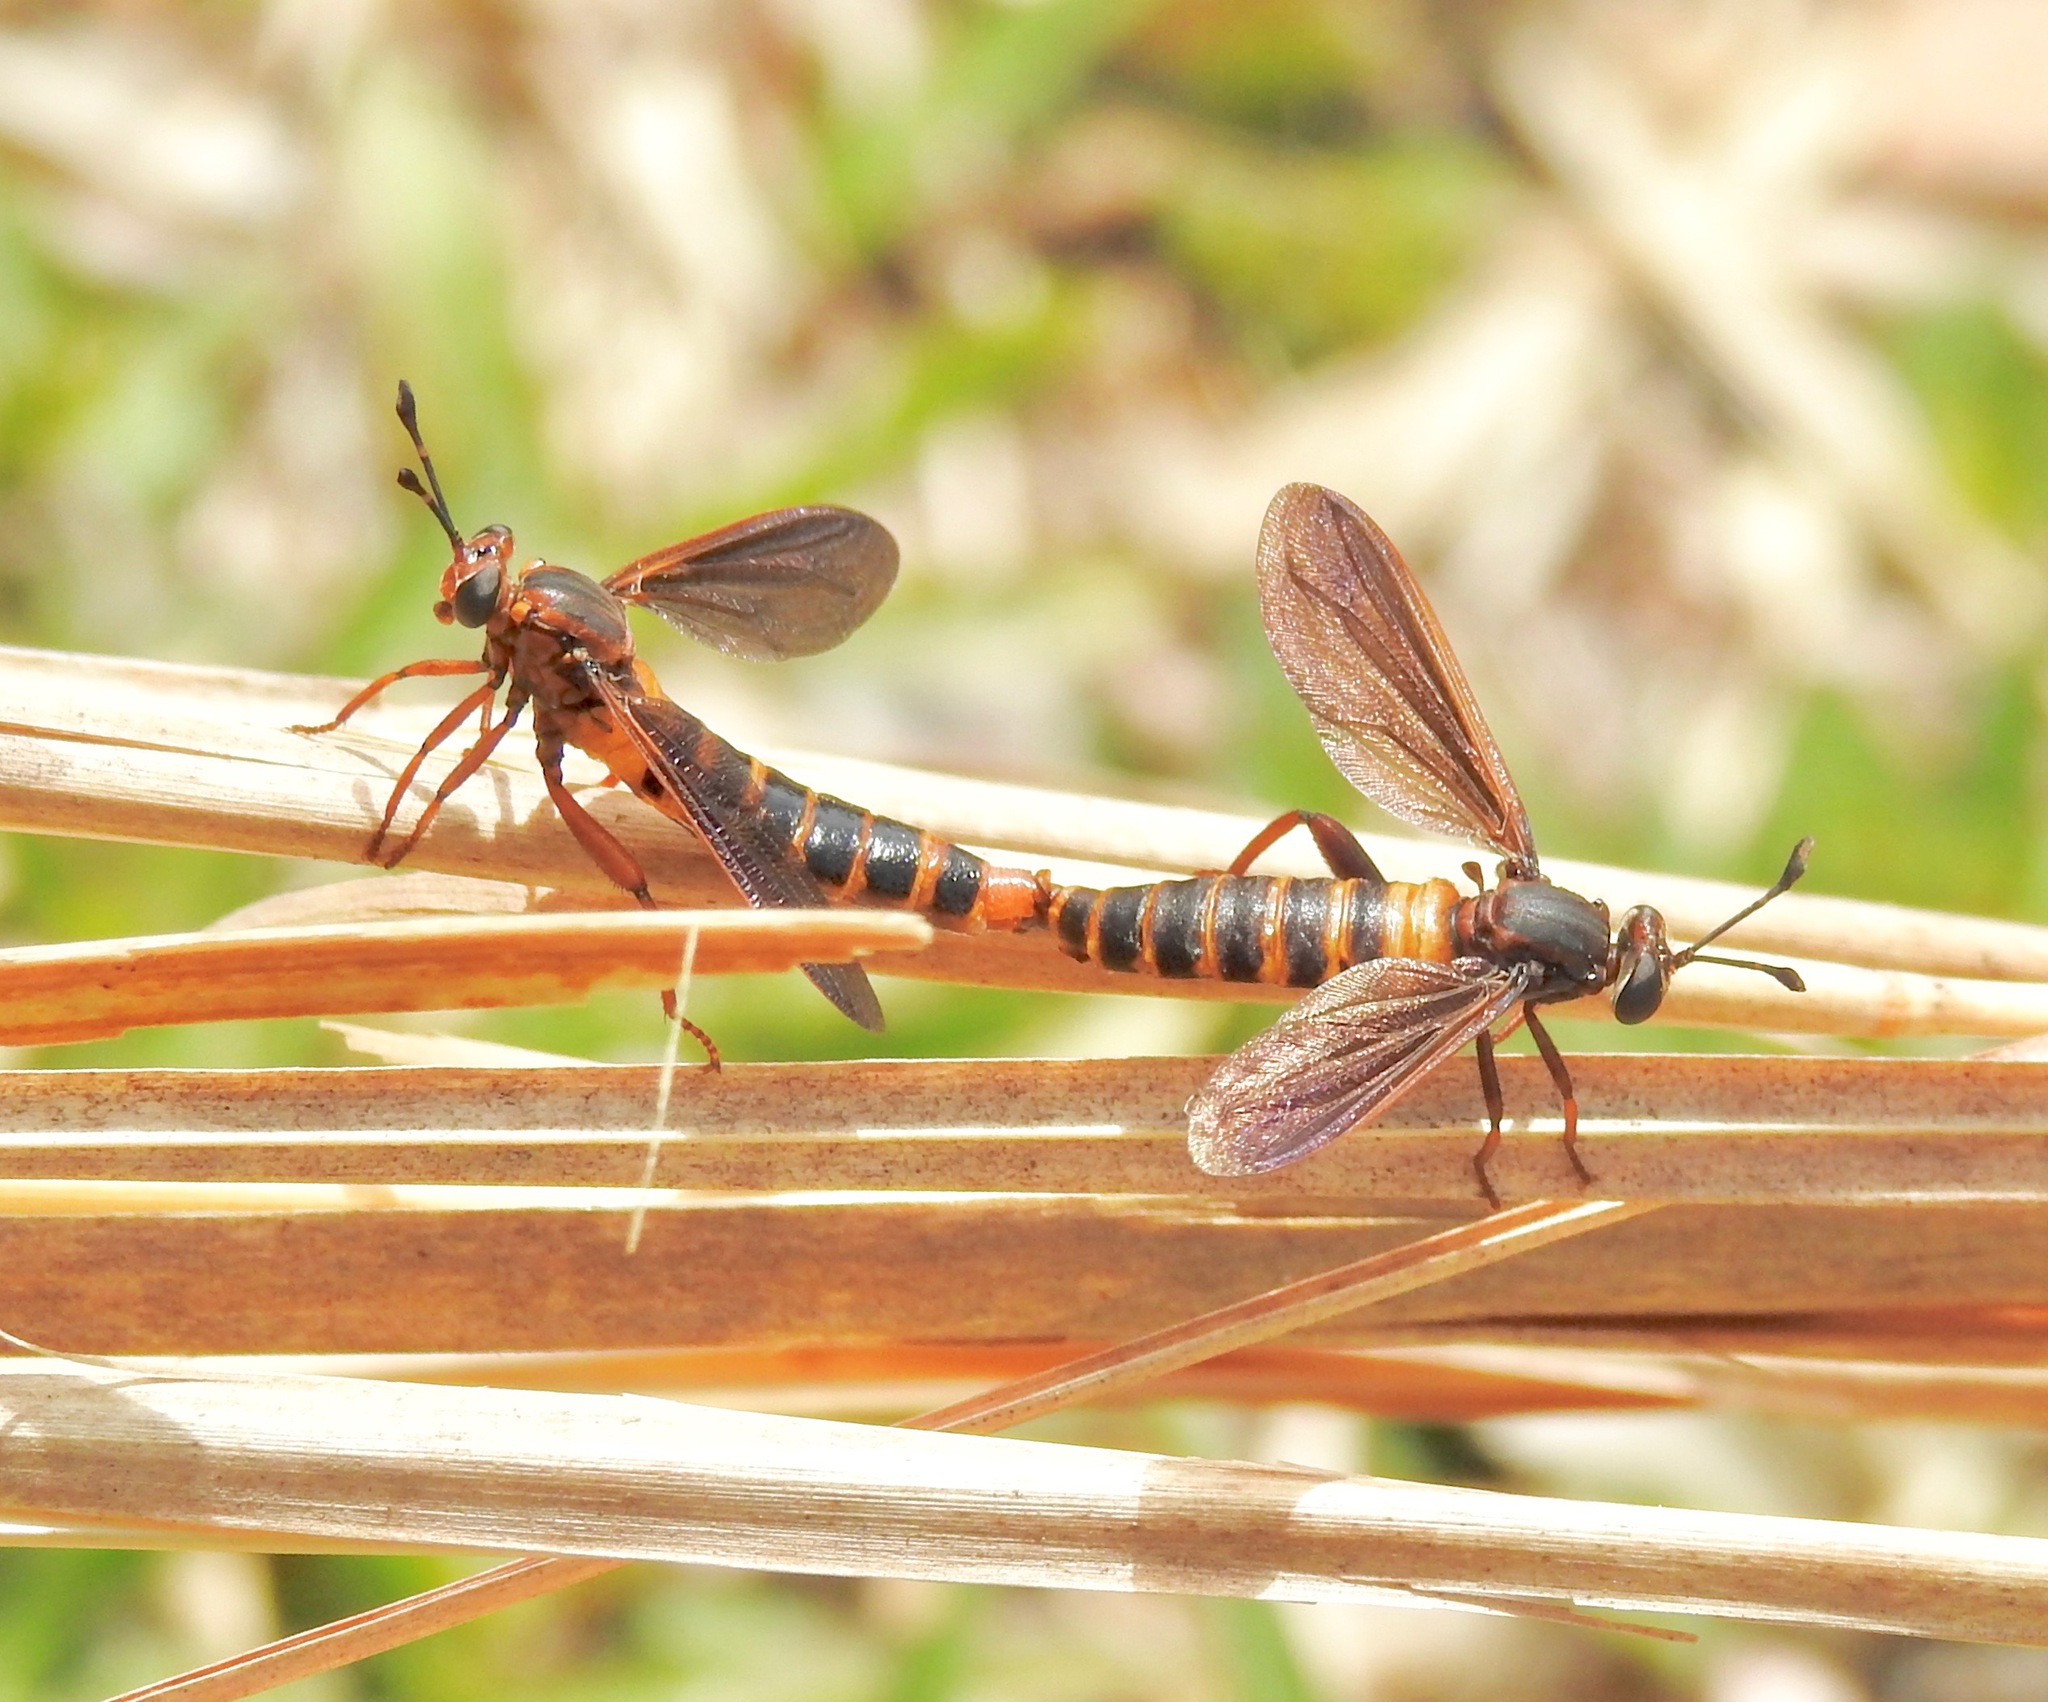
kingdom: Animalia
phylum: Arthropoda
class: Insecta
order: Diptera
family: Mydidae
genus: Phyllomydas
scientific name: Phyllomydas parvulus
